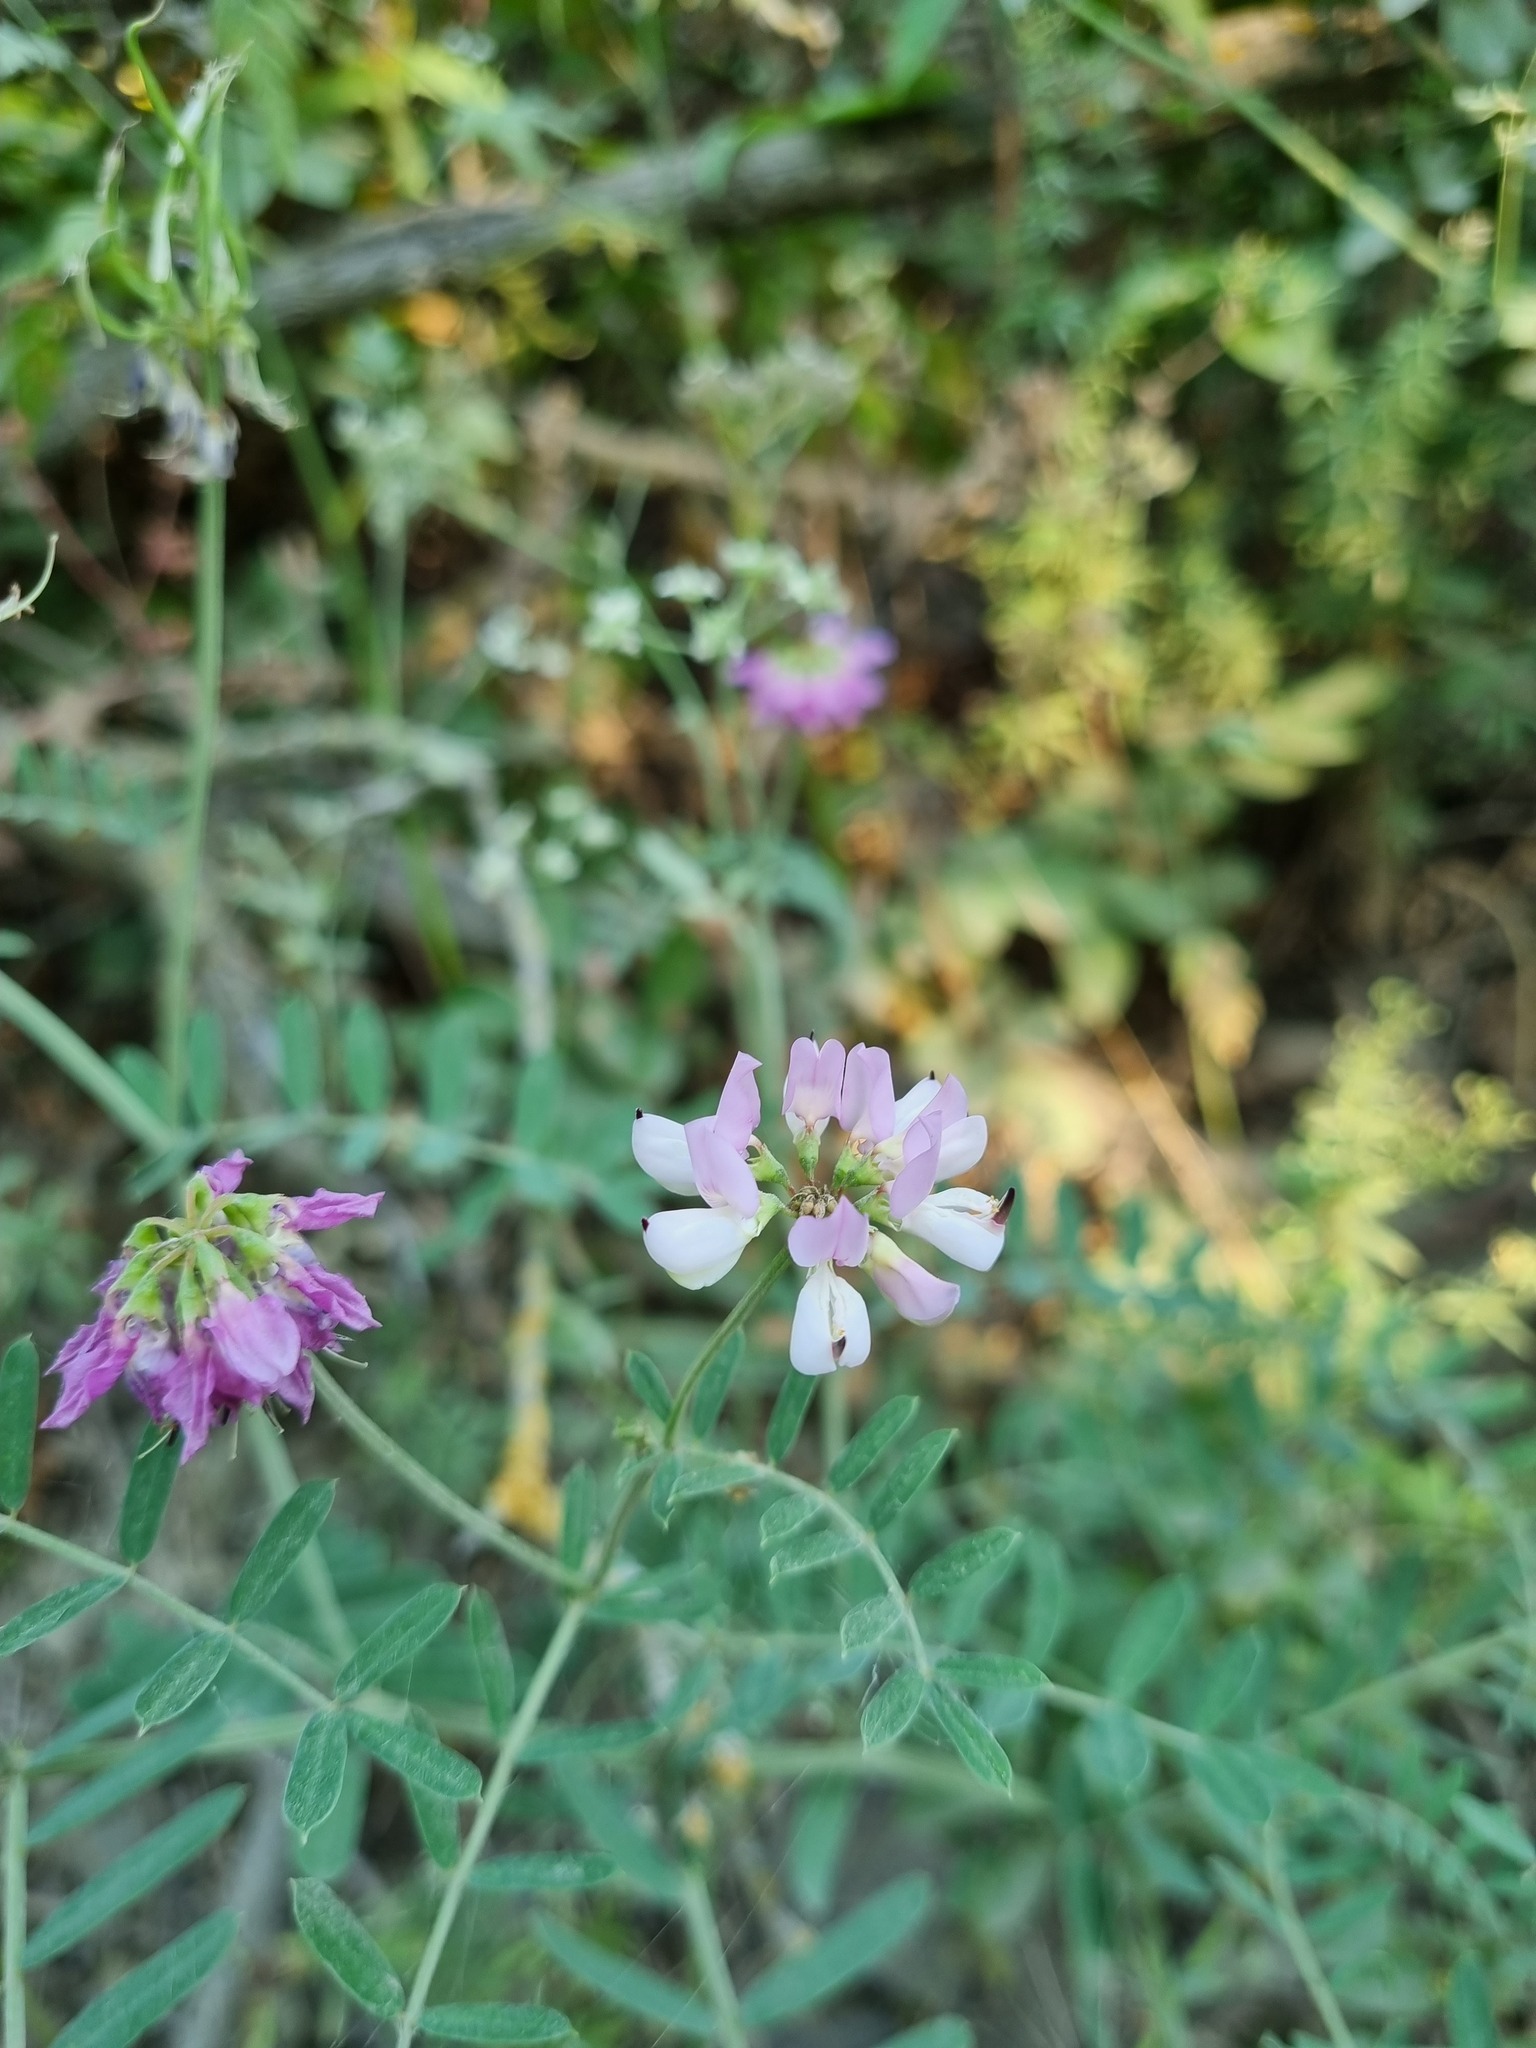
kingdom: Plantae
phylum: Tracheophyta
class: Magnoliopsida
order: Fabales
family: Fabaceae
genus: Coronilla
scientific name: Coronilla varia
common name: Crownvetch
